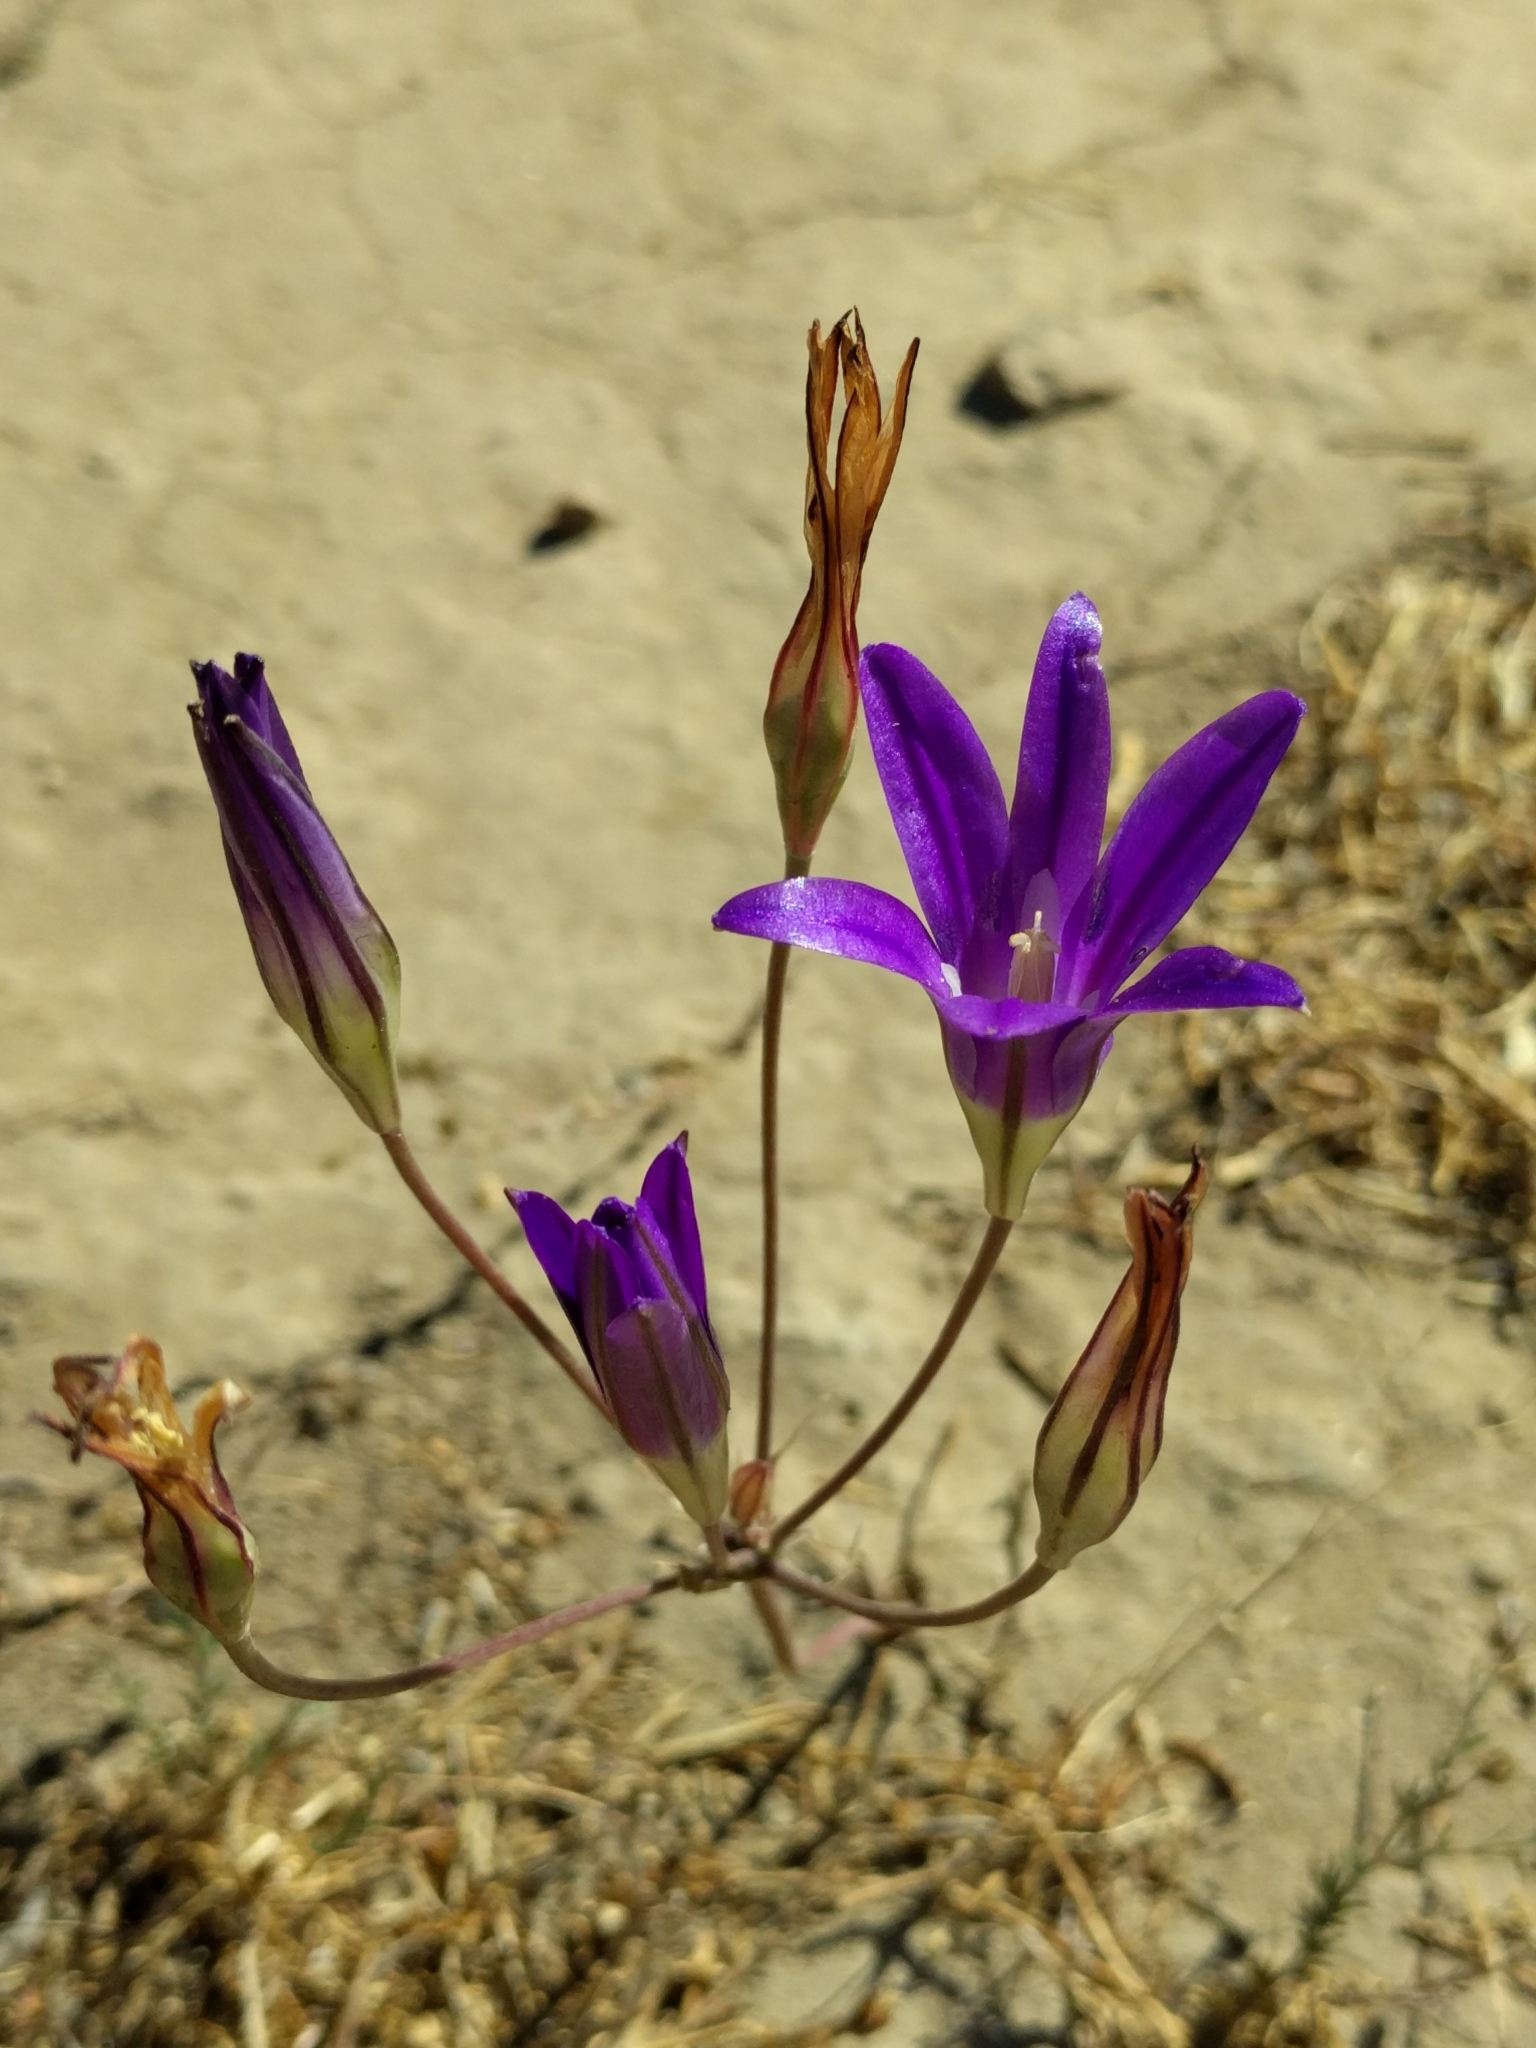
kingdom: Plantae
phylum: Tracheophyta
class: Liliopsida
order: Asparagales
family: Asparagaceae
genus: Brodiaea
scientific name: Brodiaea elegans
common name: Elegant cluster-lily
